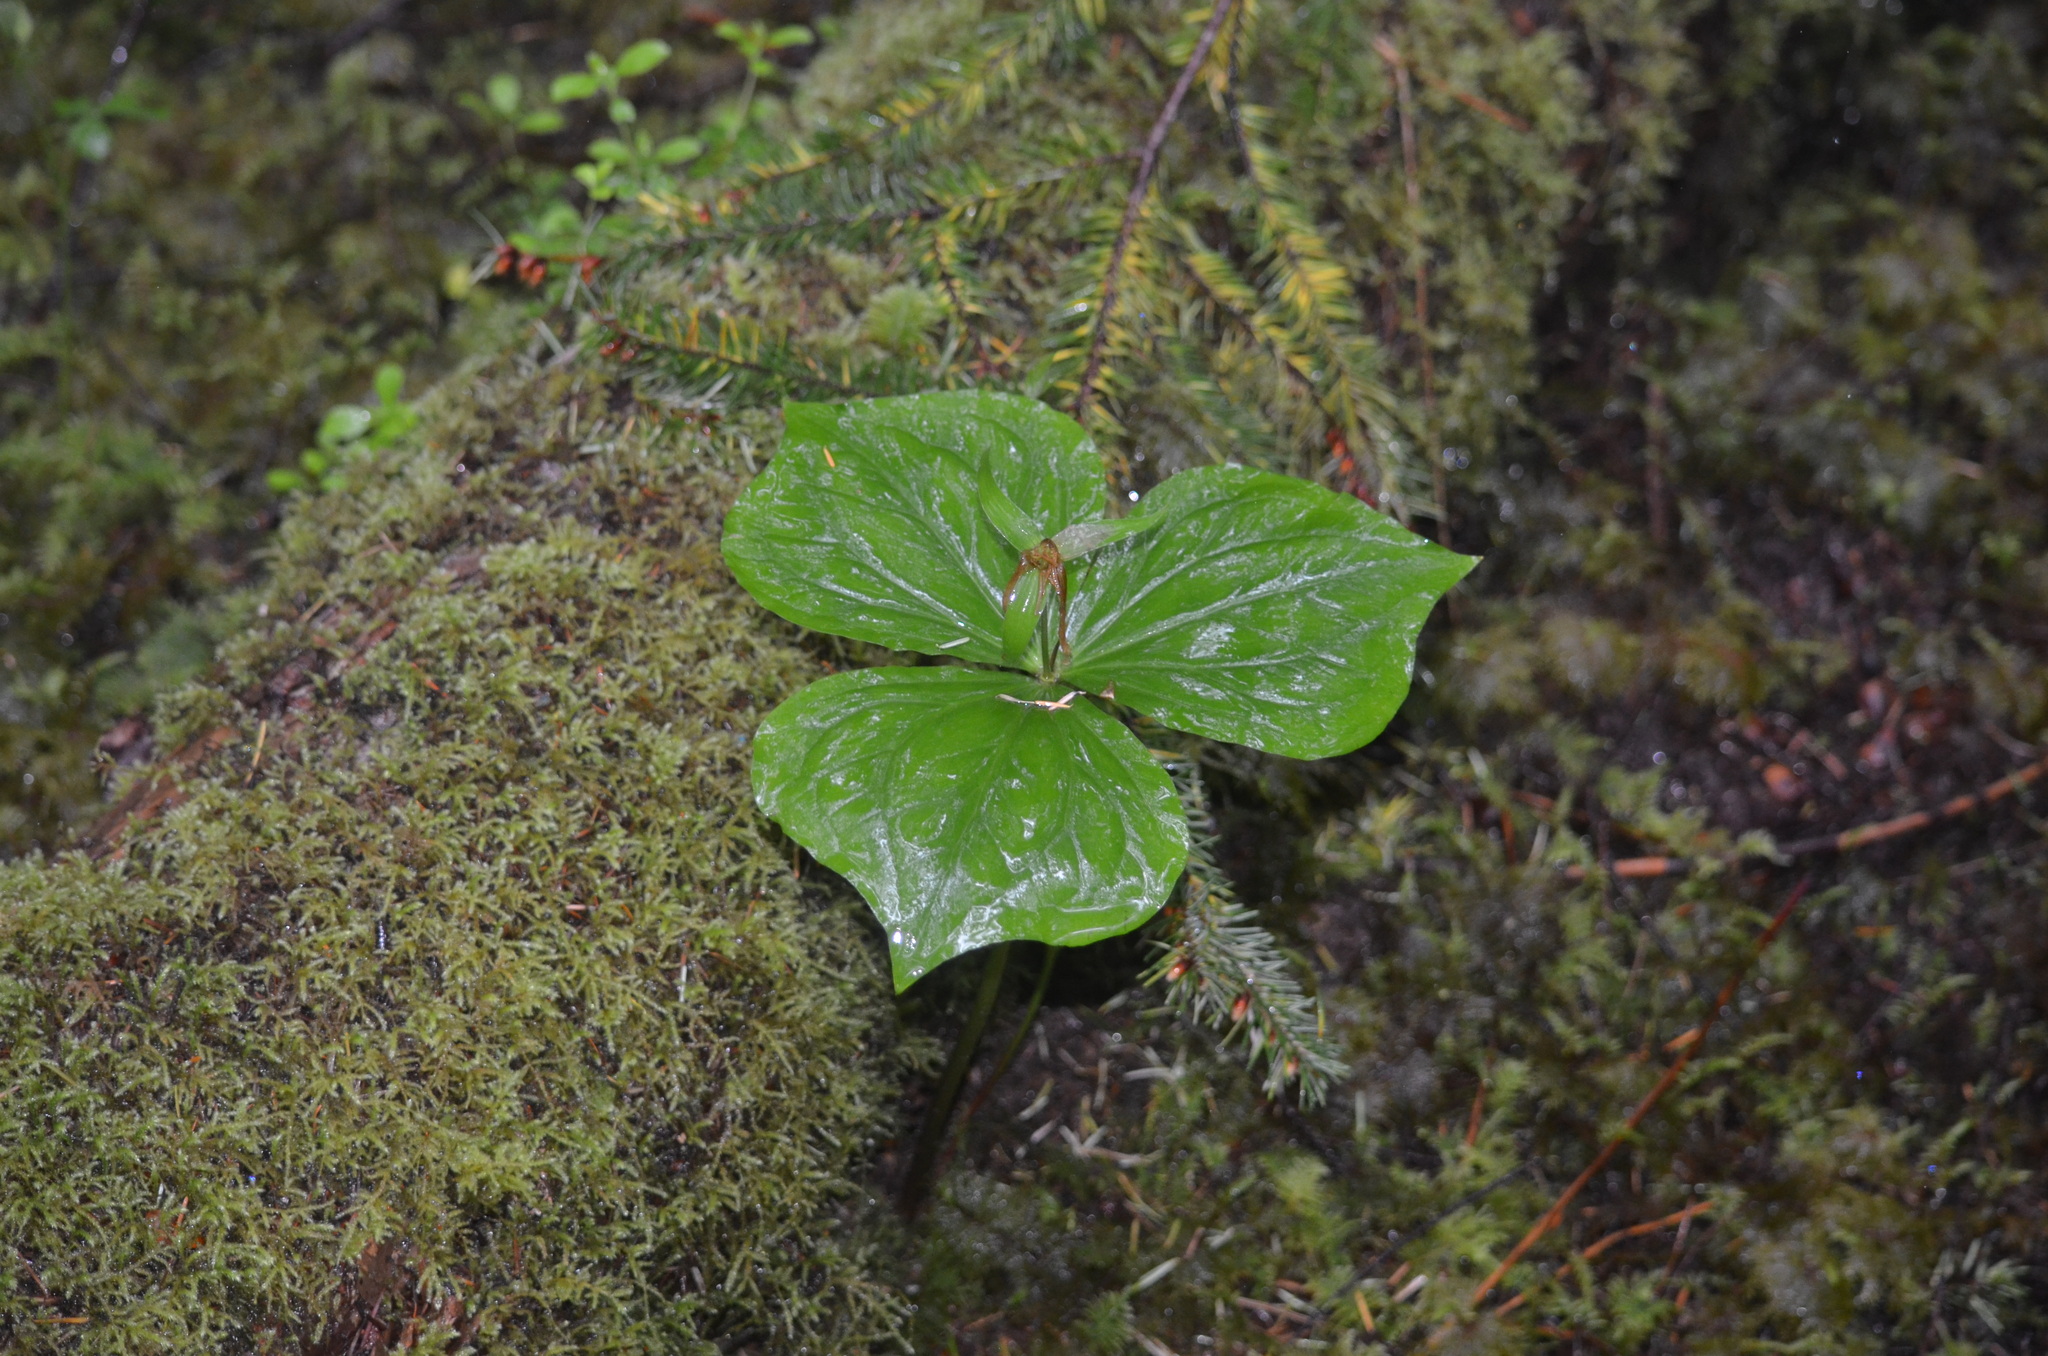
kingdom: Plantae
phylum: Tracheophyta
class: Liliopsida
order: Liliales
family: Melanthiaceae
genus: Trillium
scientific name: Trillium ovatum
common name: Pacific trillium
